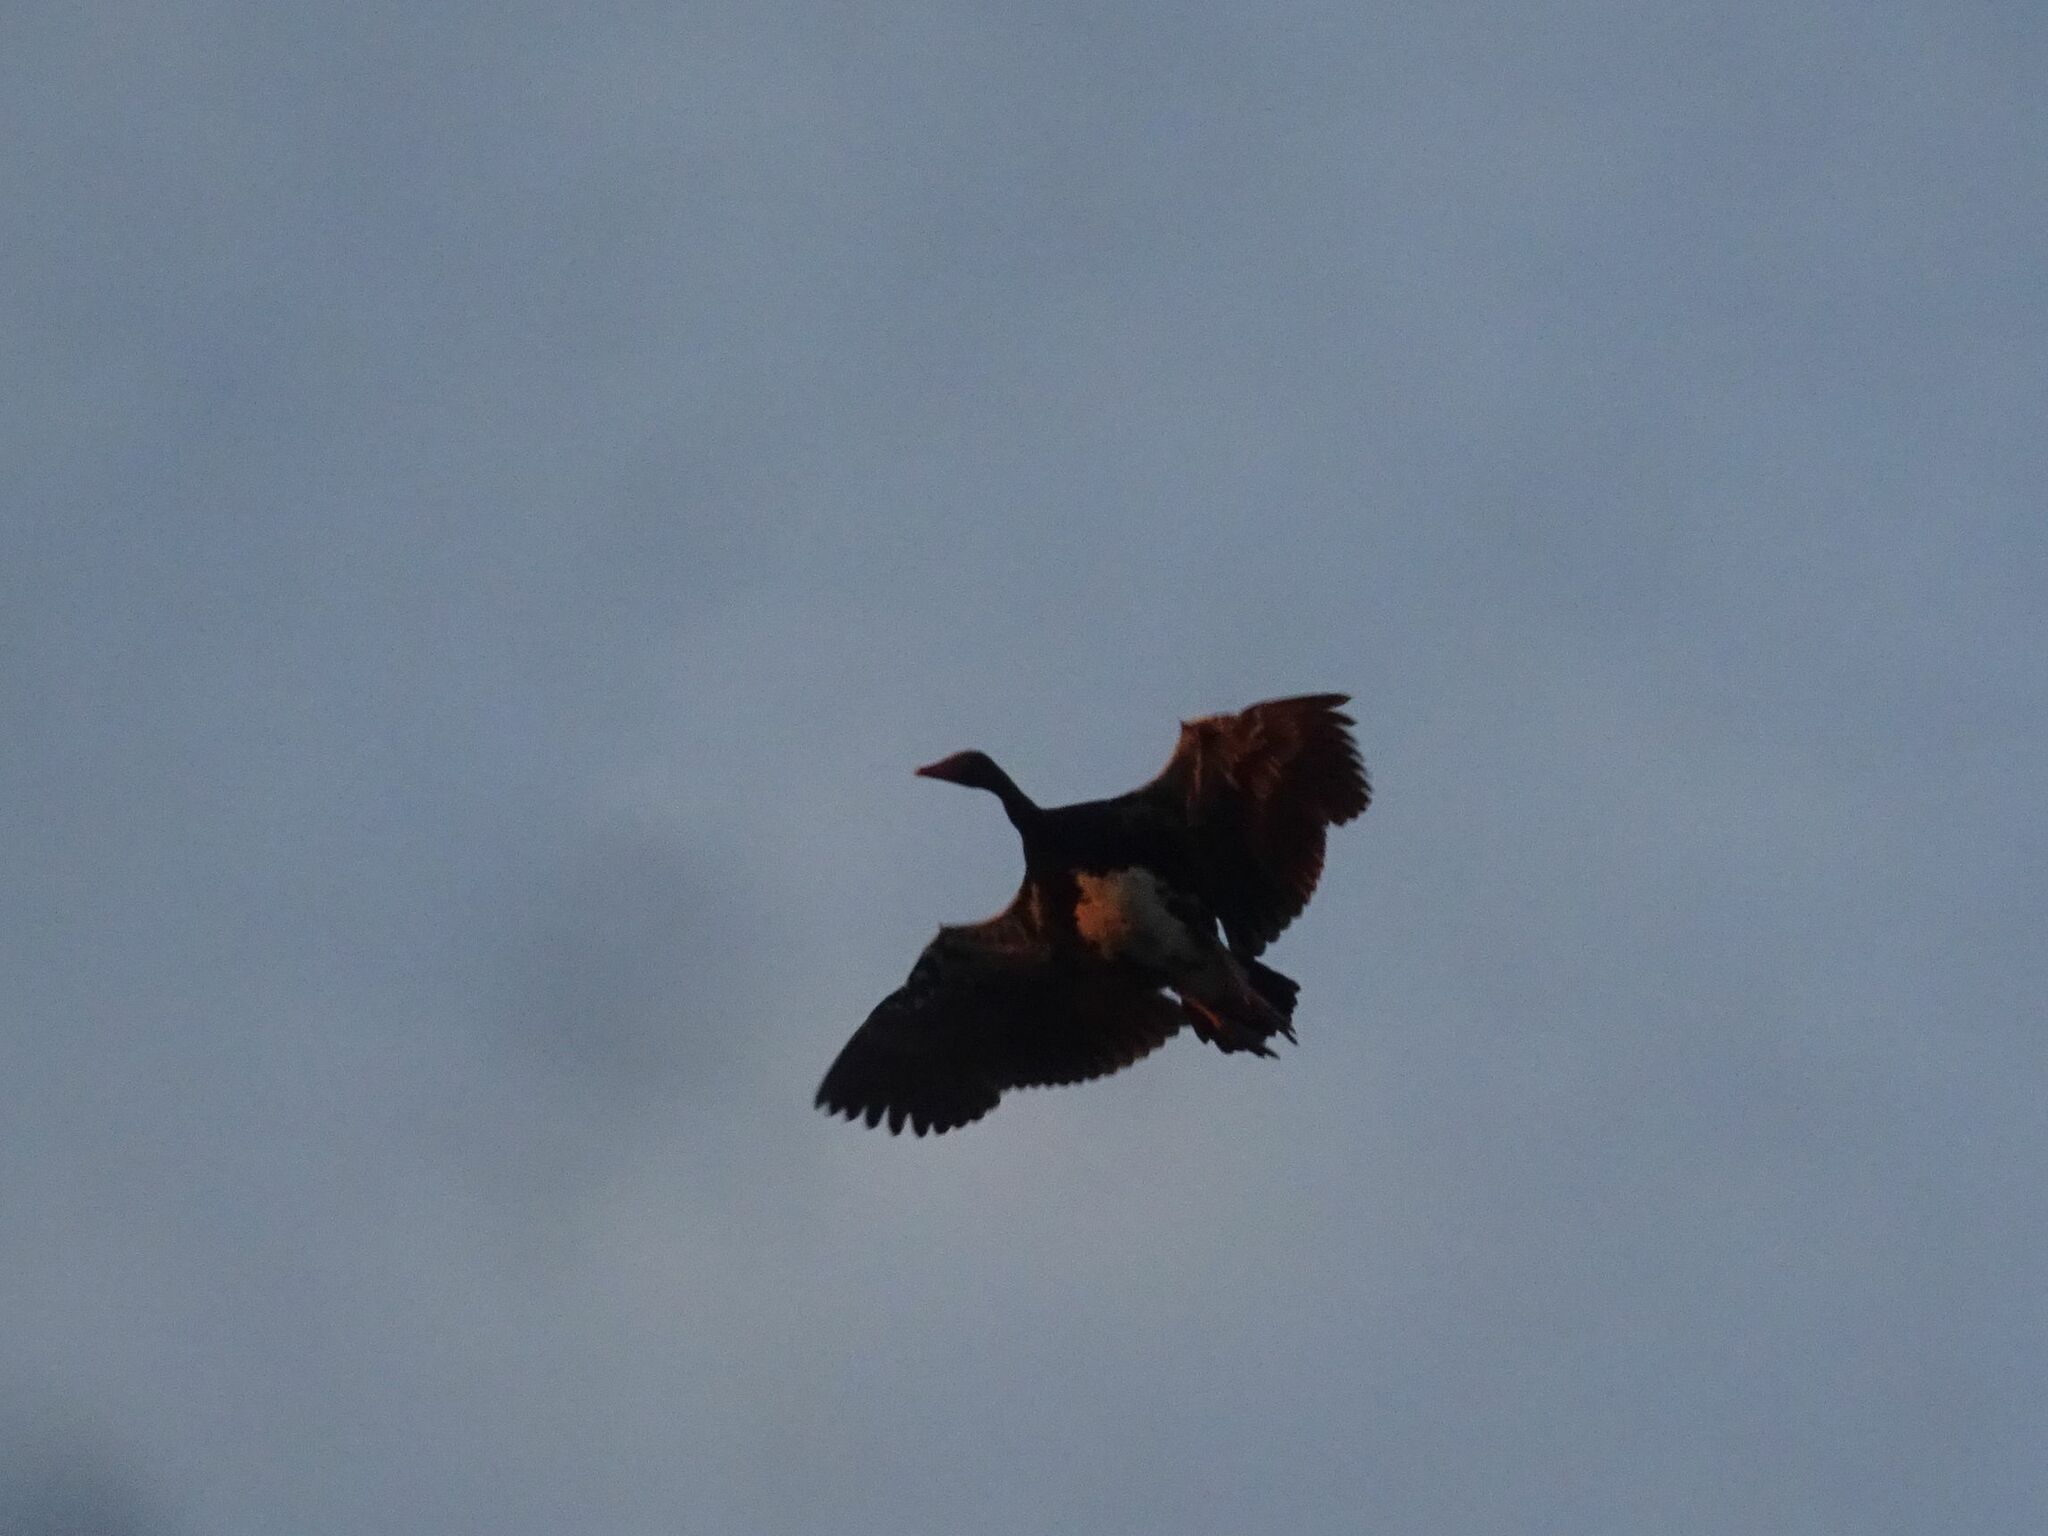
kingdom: Animalia
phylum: Chordata
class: Aves
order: Anseriformes
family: Anatidae
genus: Plectropterus
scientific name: Plectropterus gambensis
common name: Spur-winged goose
